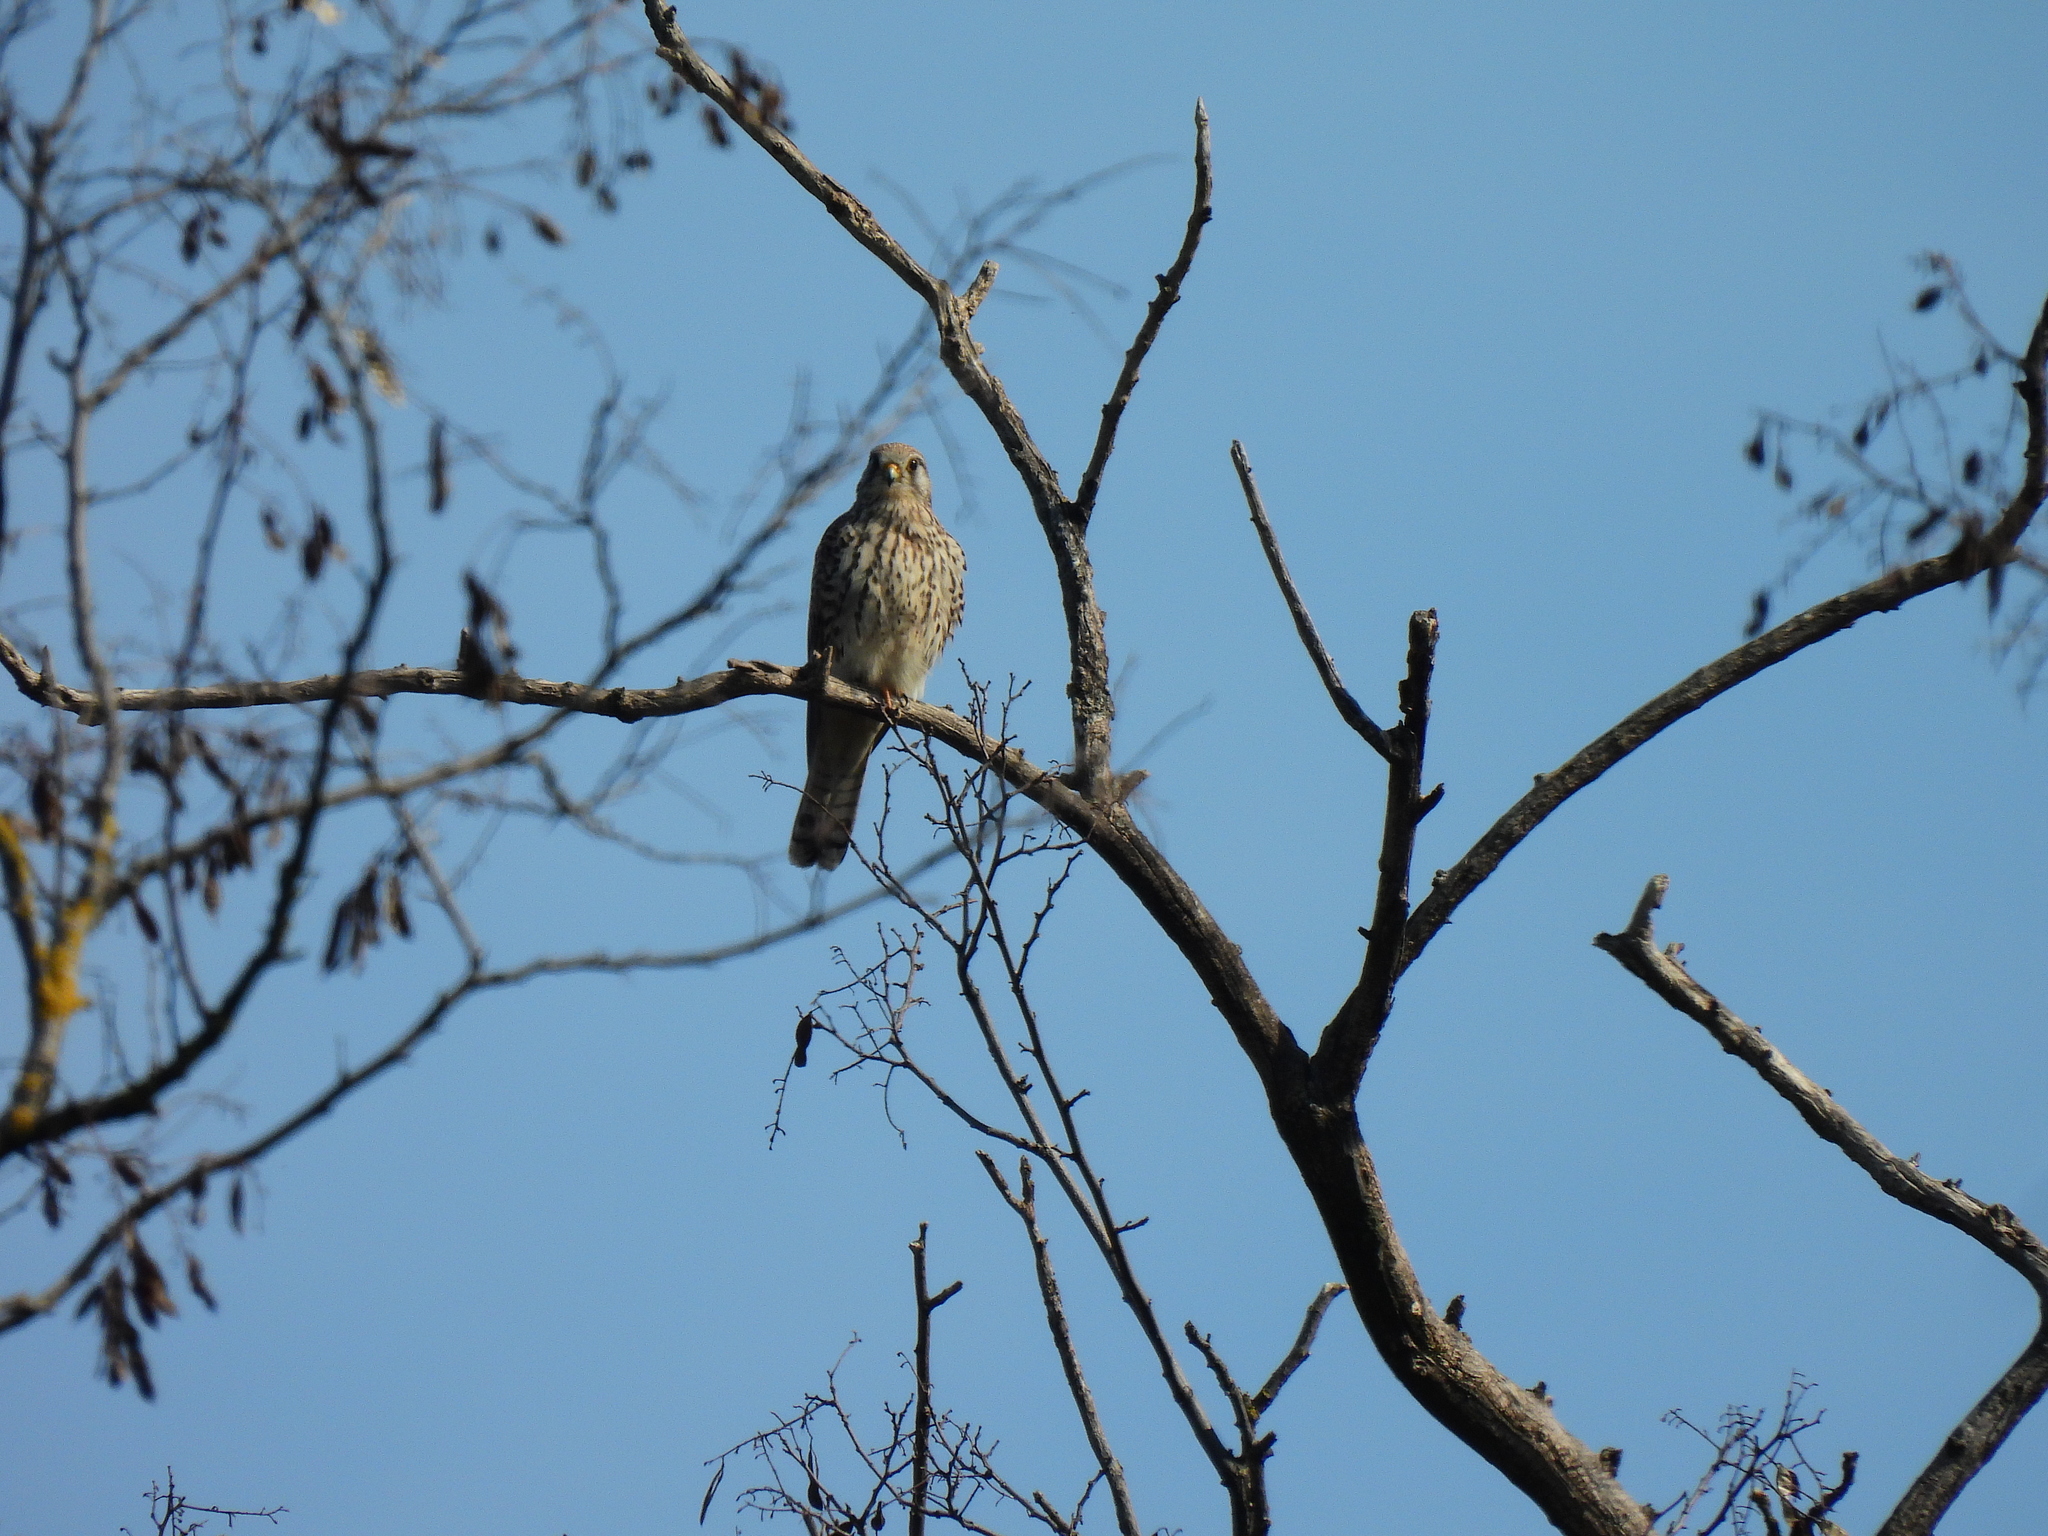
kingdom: Animalia
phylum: Chordata
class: Aves
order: Falconiformes
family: Falconidae
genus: Falco
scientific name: Falco tinnunculus
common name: Common kestrel
